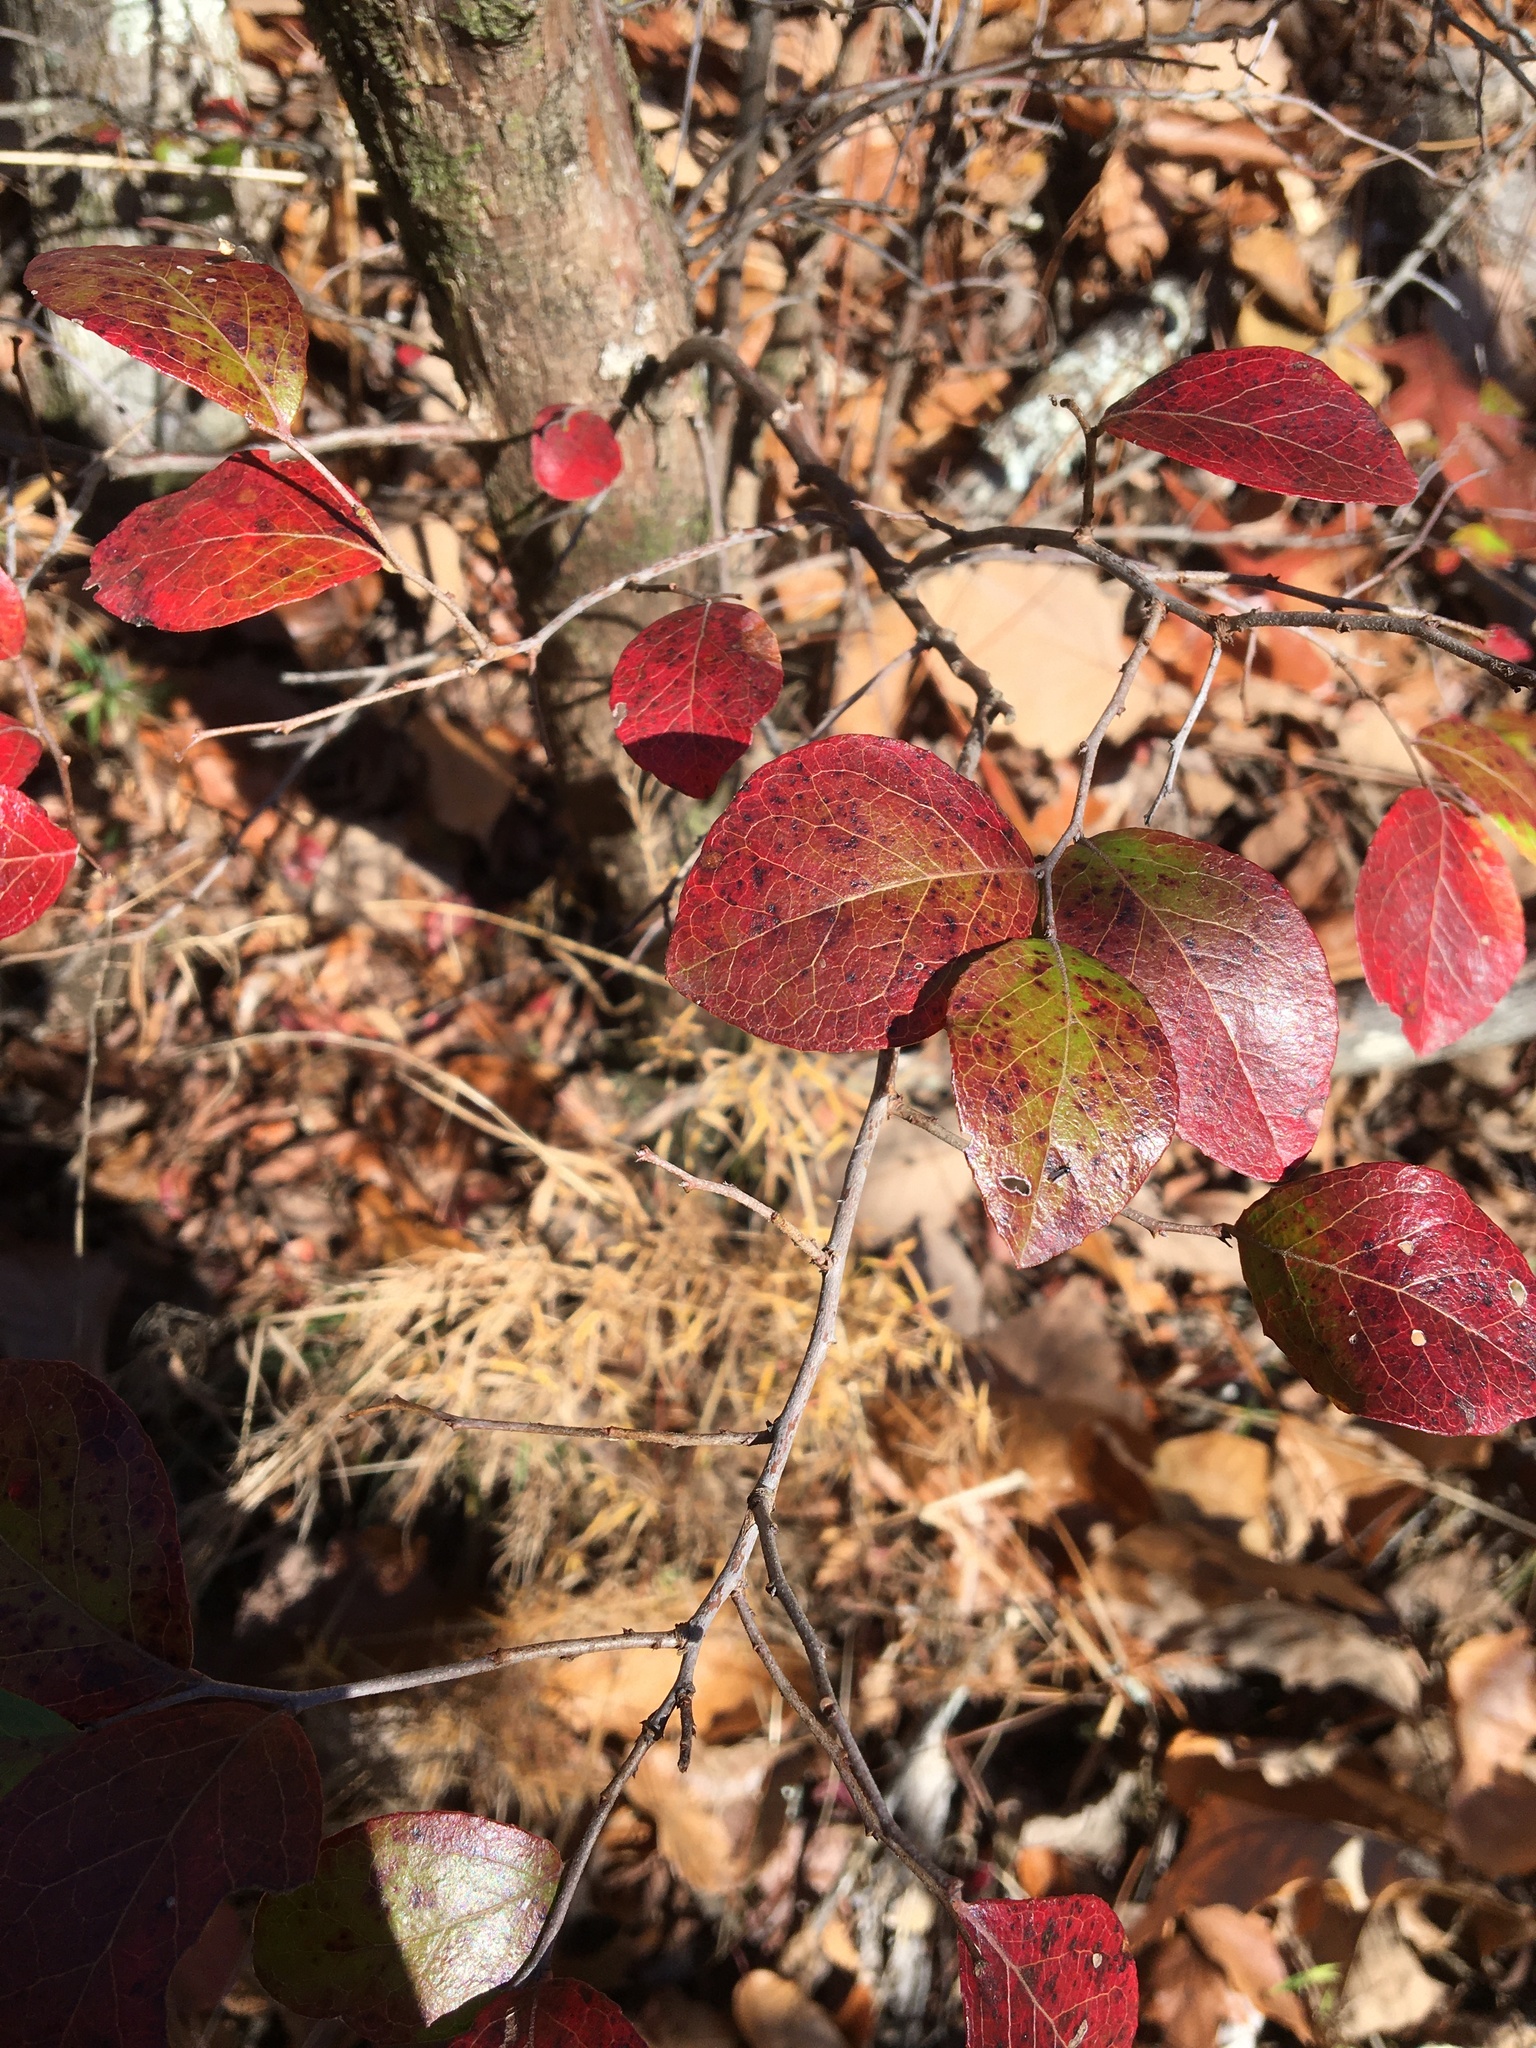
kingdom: Plantae
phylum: Tracheophyta
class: Magnoliopsida
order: Ericales
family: Ericaceae
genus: Vaccinium
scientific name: Vaccinium arboreum
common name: Farkleberry
